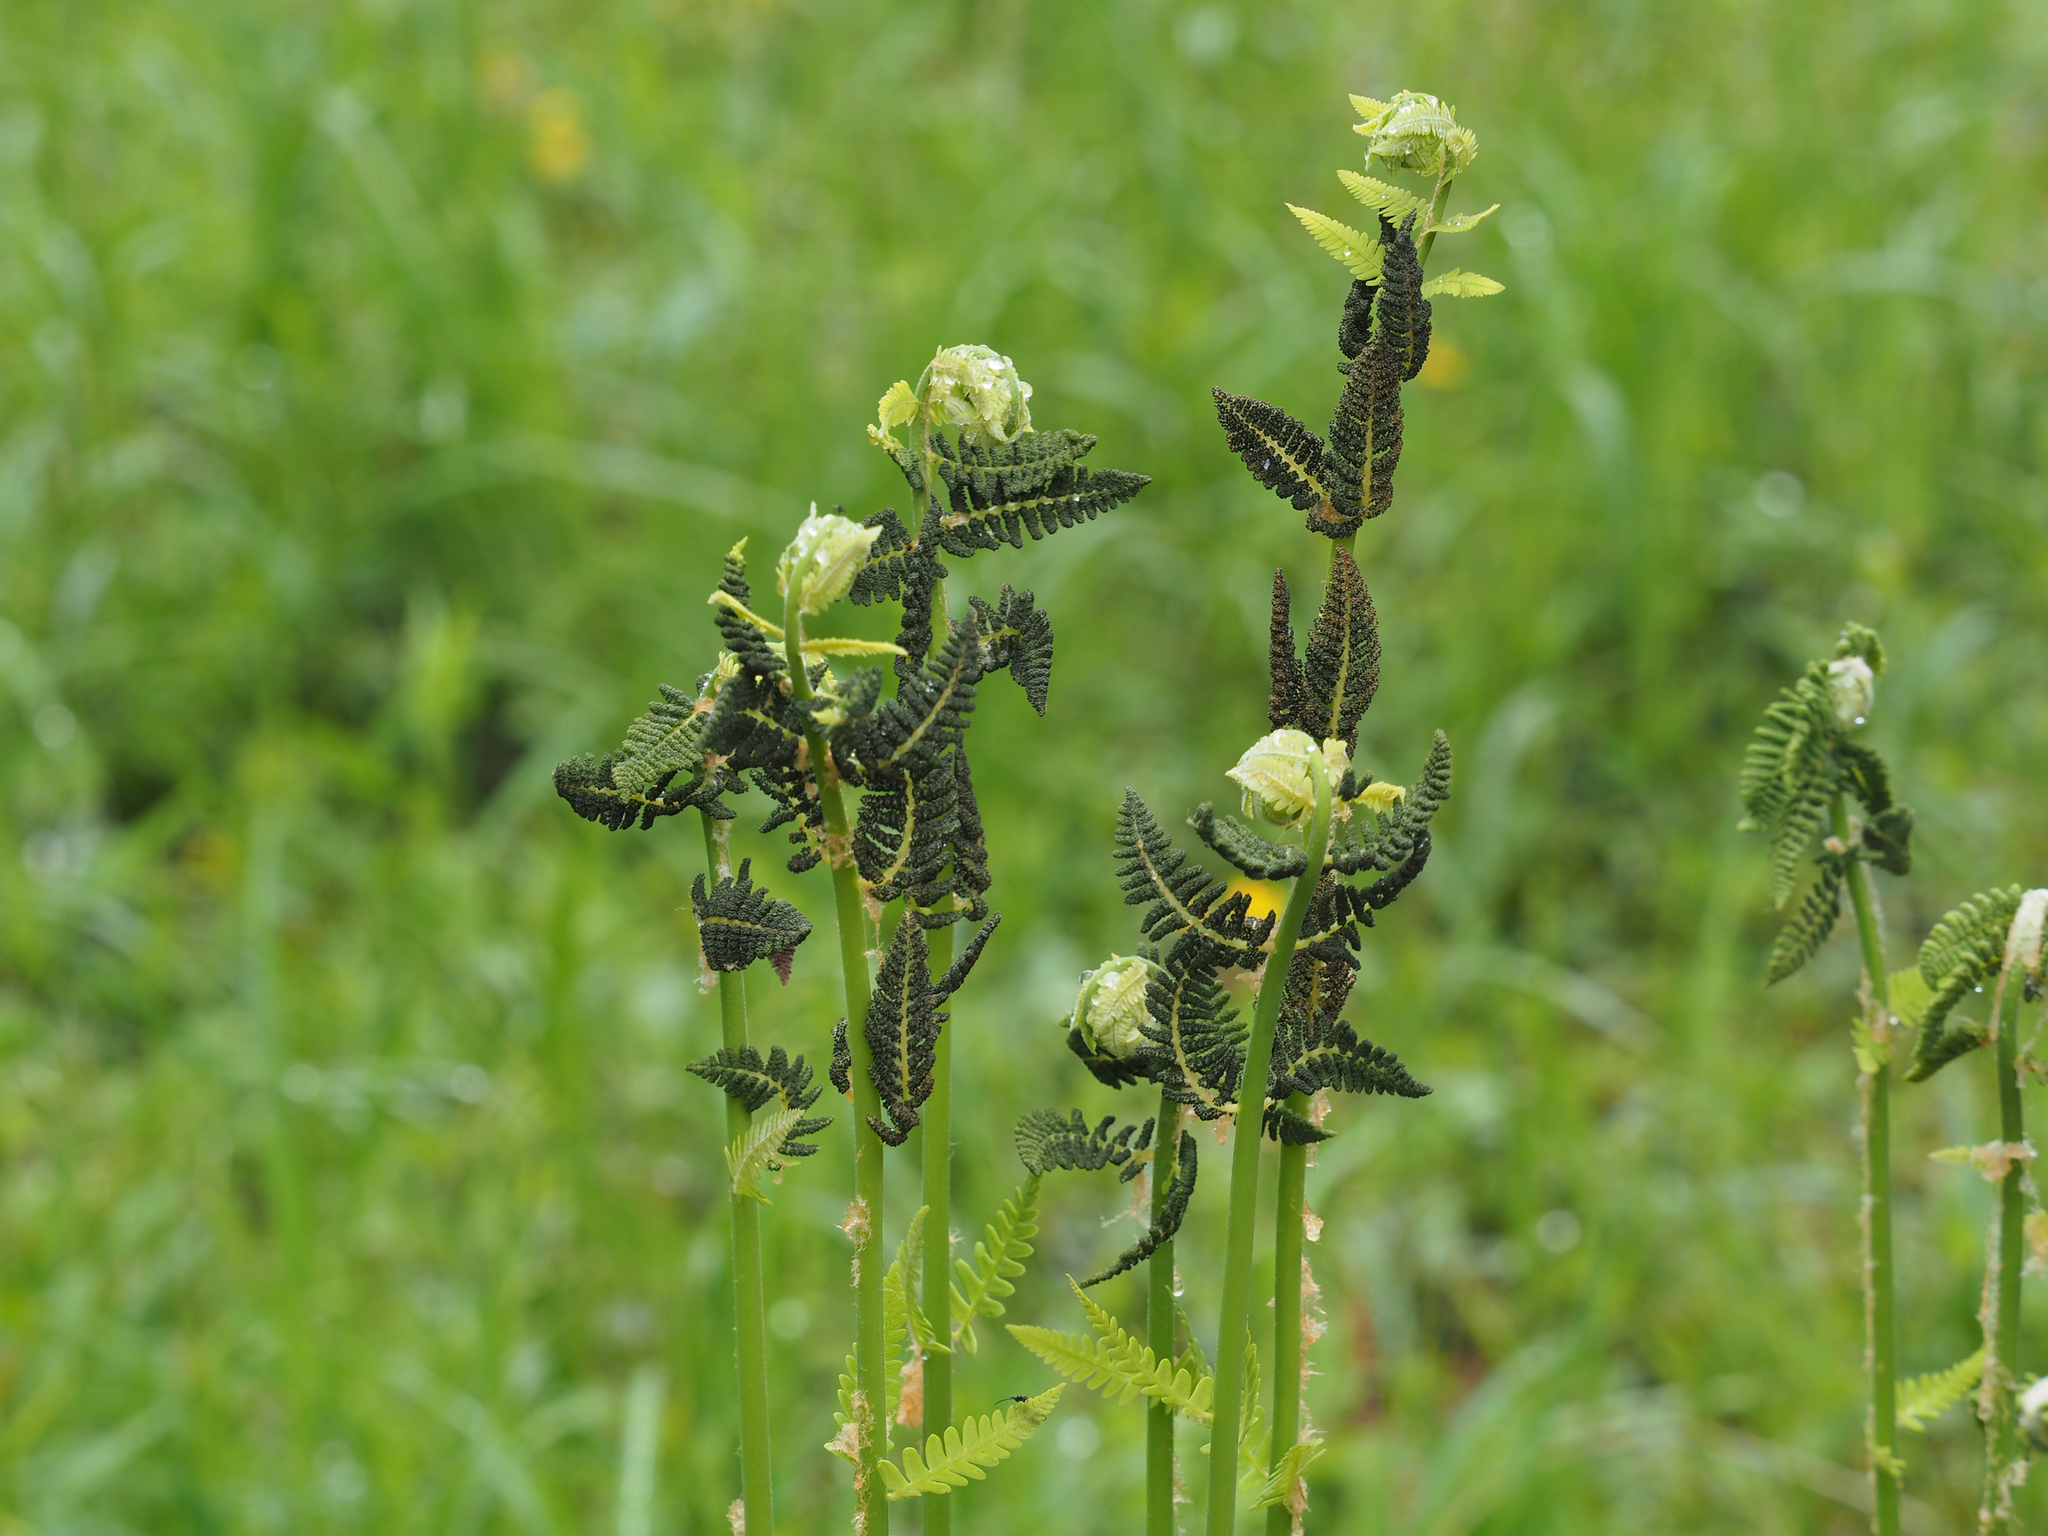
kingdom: Plantae
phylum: Tracheophyta
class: Polypodiopsida
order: Osmundales
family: Osmundaceae
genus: Claytosmunda
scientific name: Claytosmunda claytoniana
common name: Clayton's fern
